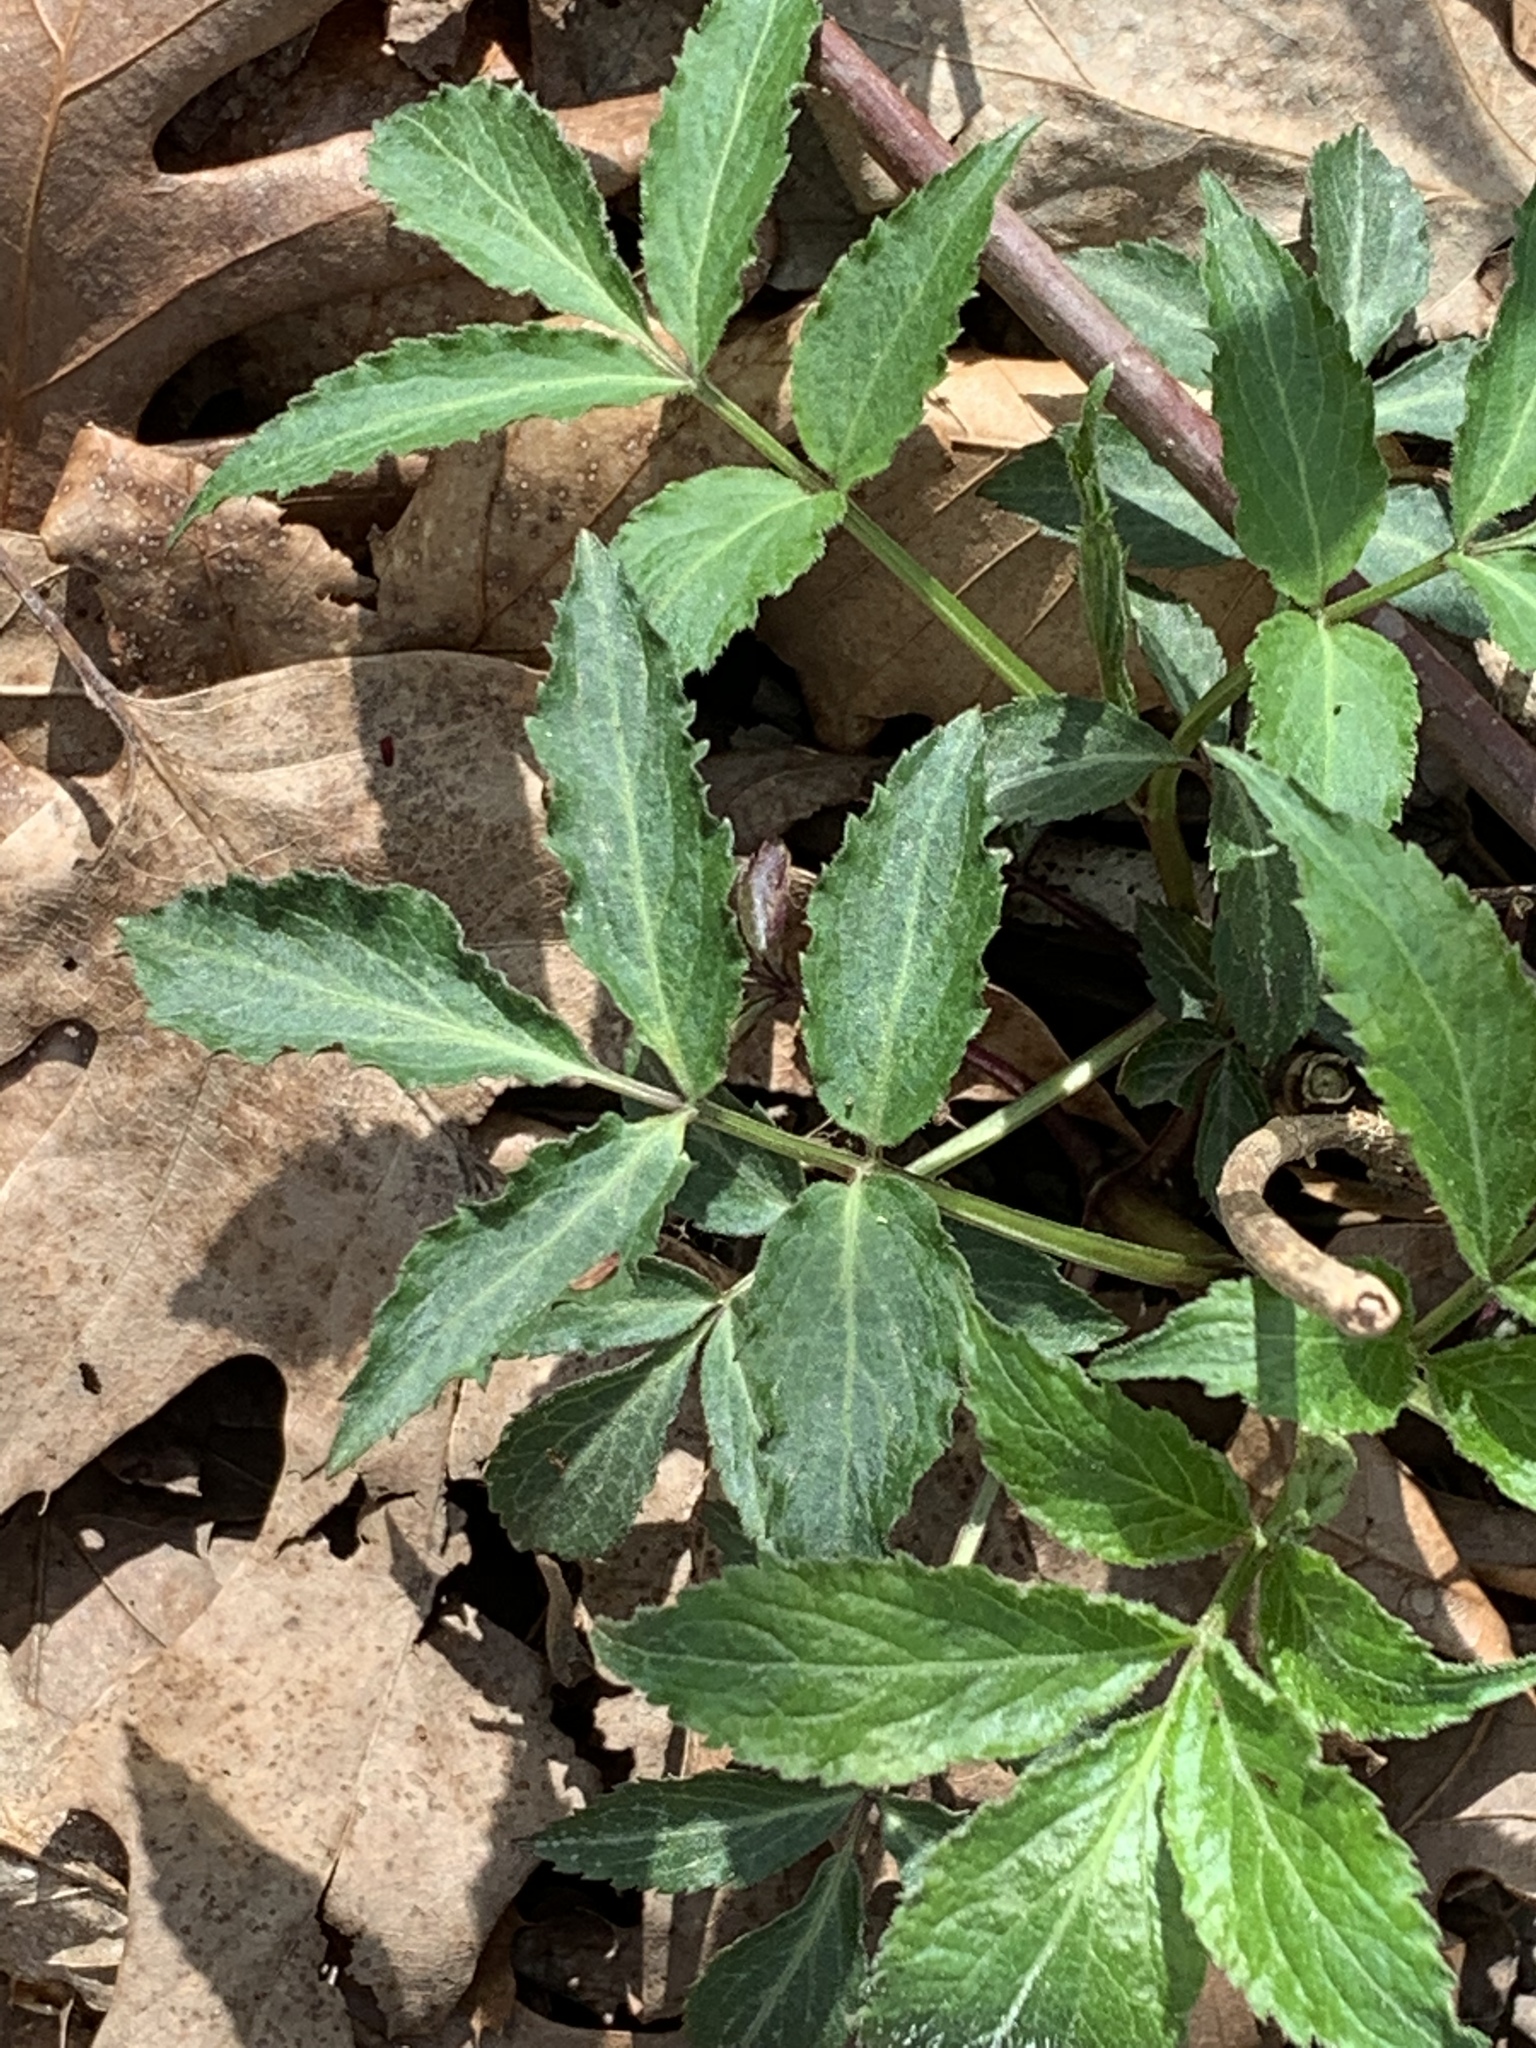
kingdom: Plantae
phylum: Tracheophyta
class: Magnoliopsida
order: Dipsacales
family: Viburnaceae
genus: Sambucus
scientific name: Sambucus
